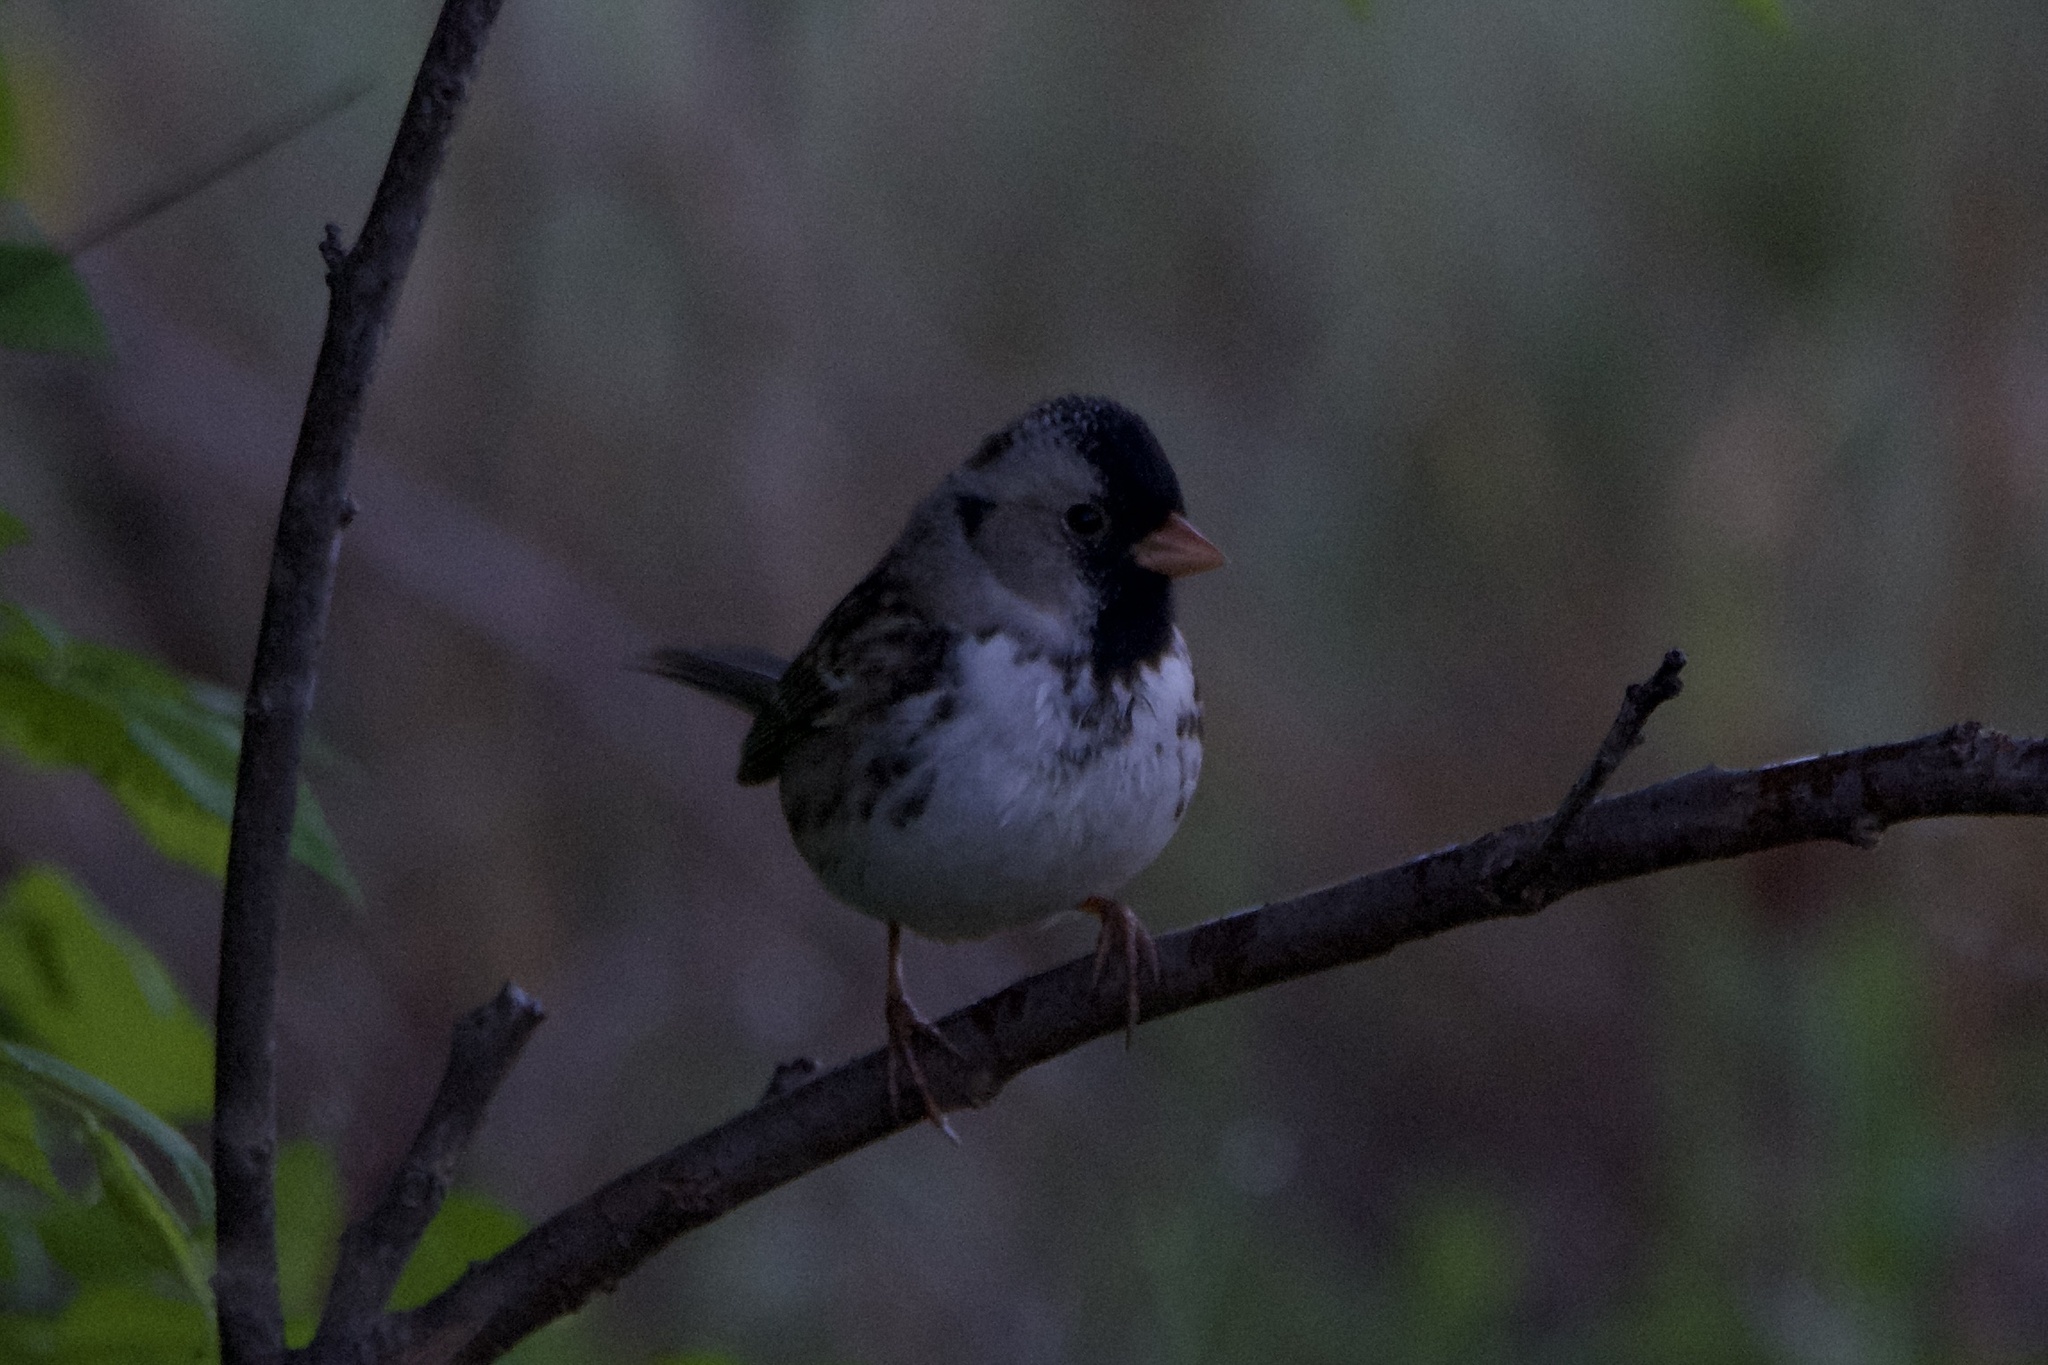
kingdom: Animalia
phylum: Chordata
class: Aves
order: Passeriformes
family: Passerellidae
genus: Zonotrichia
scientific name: Zonotrichia querula
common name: Harris's sparrow
